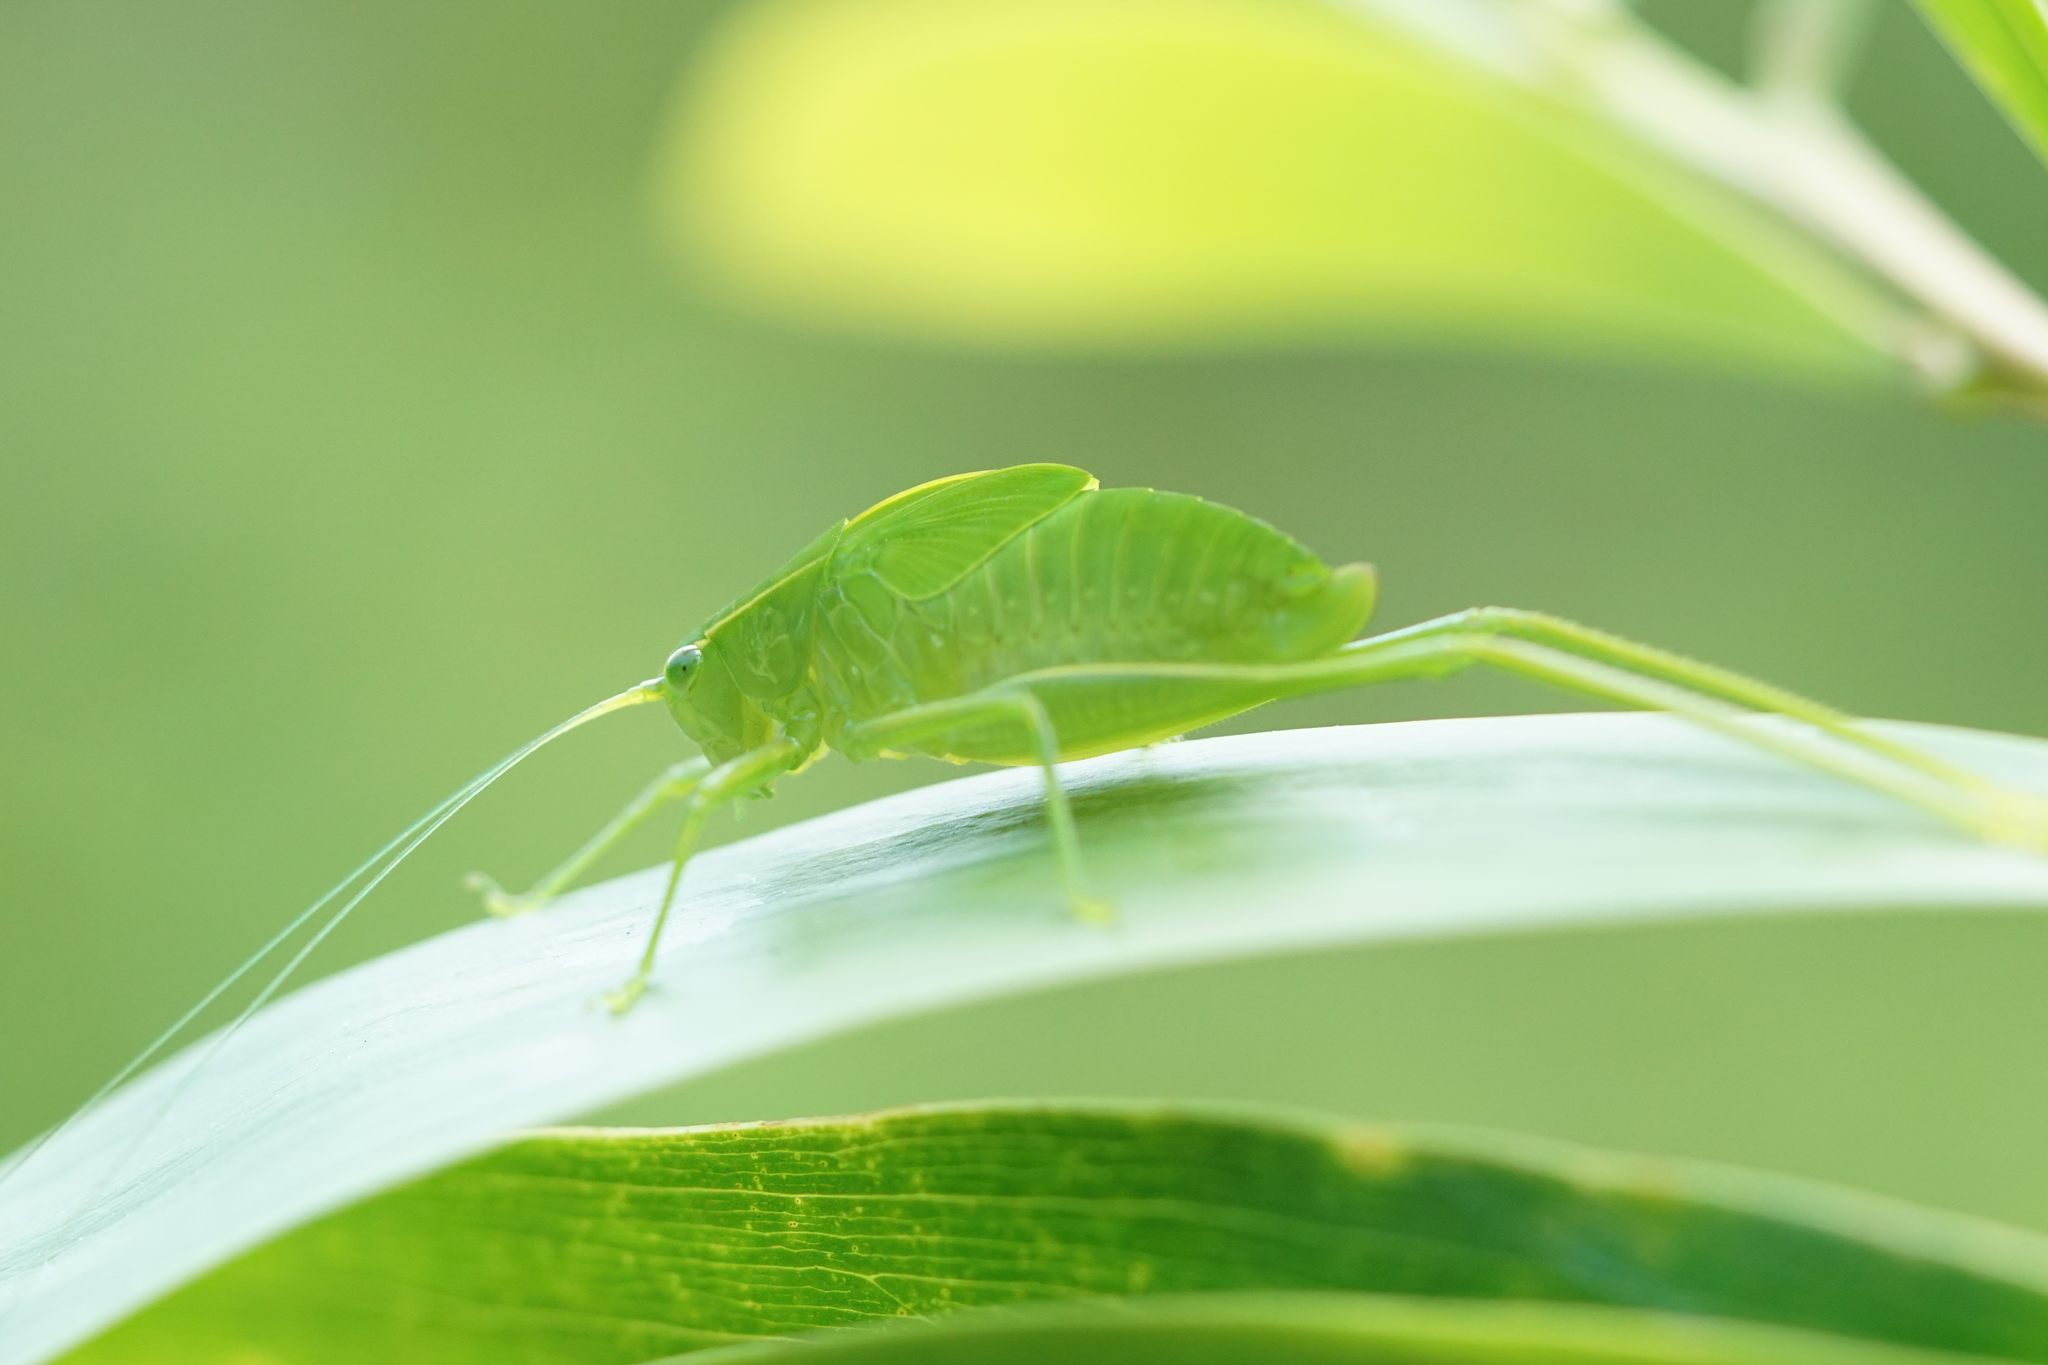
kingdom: Animalia
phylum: Arthropoda
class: Insecta
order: Orthoptera
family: Tettigoniidae
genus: Turpilia
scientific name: Turpilia rostrata
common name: Narrow-beaked katydid
